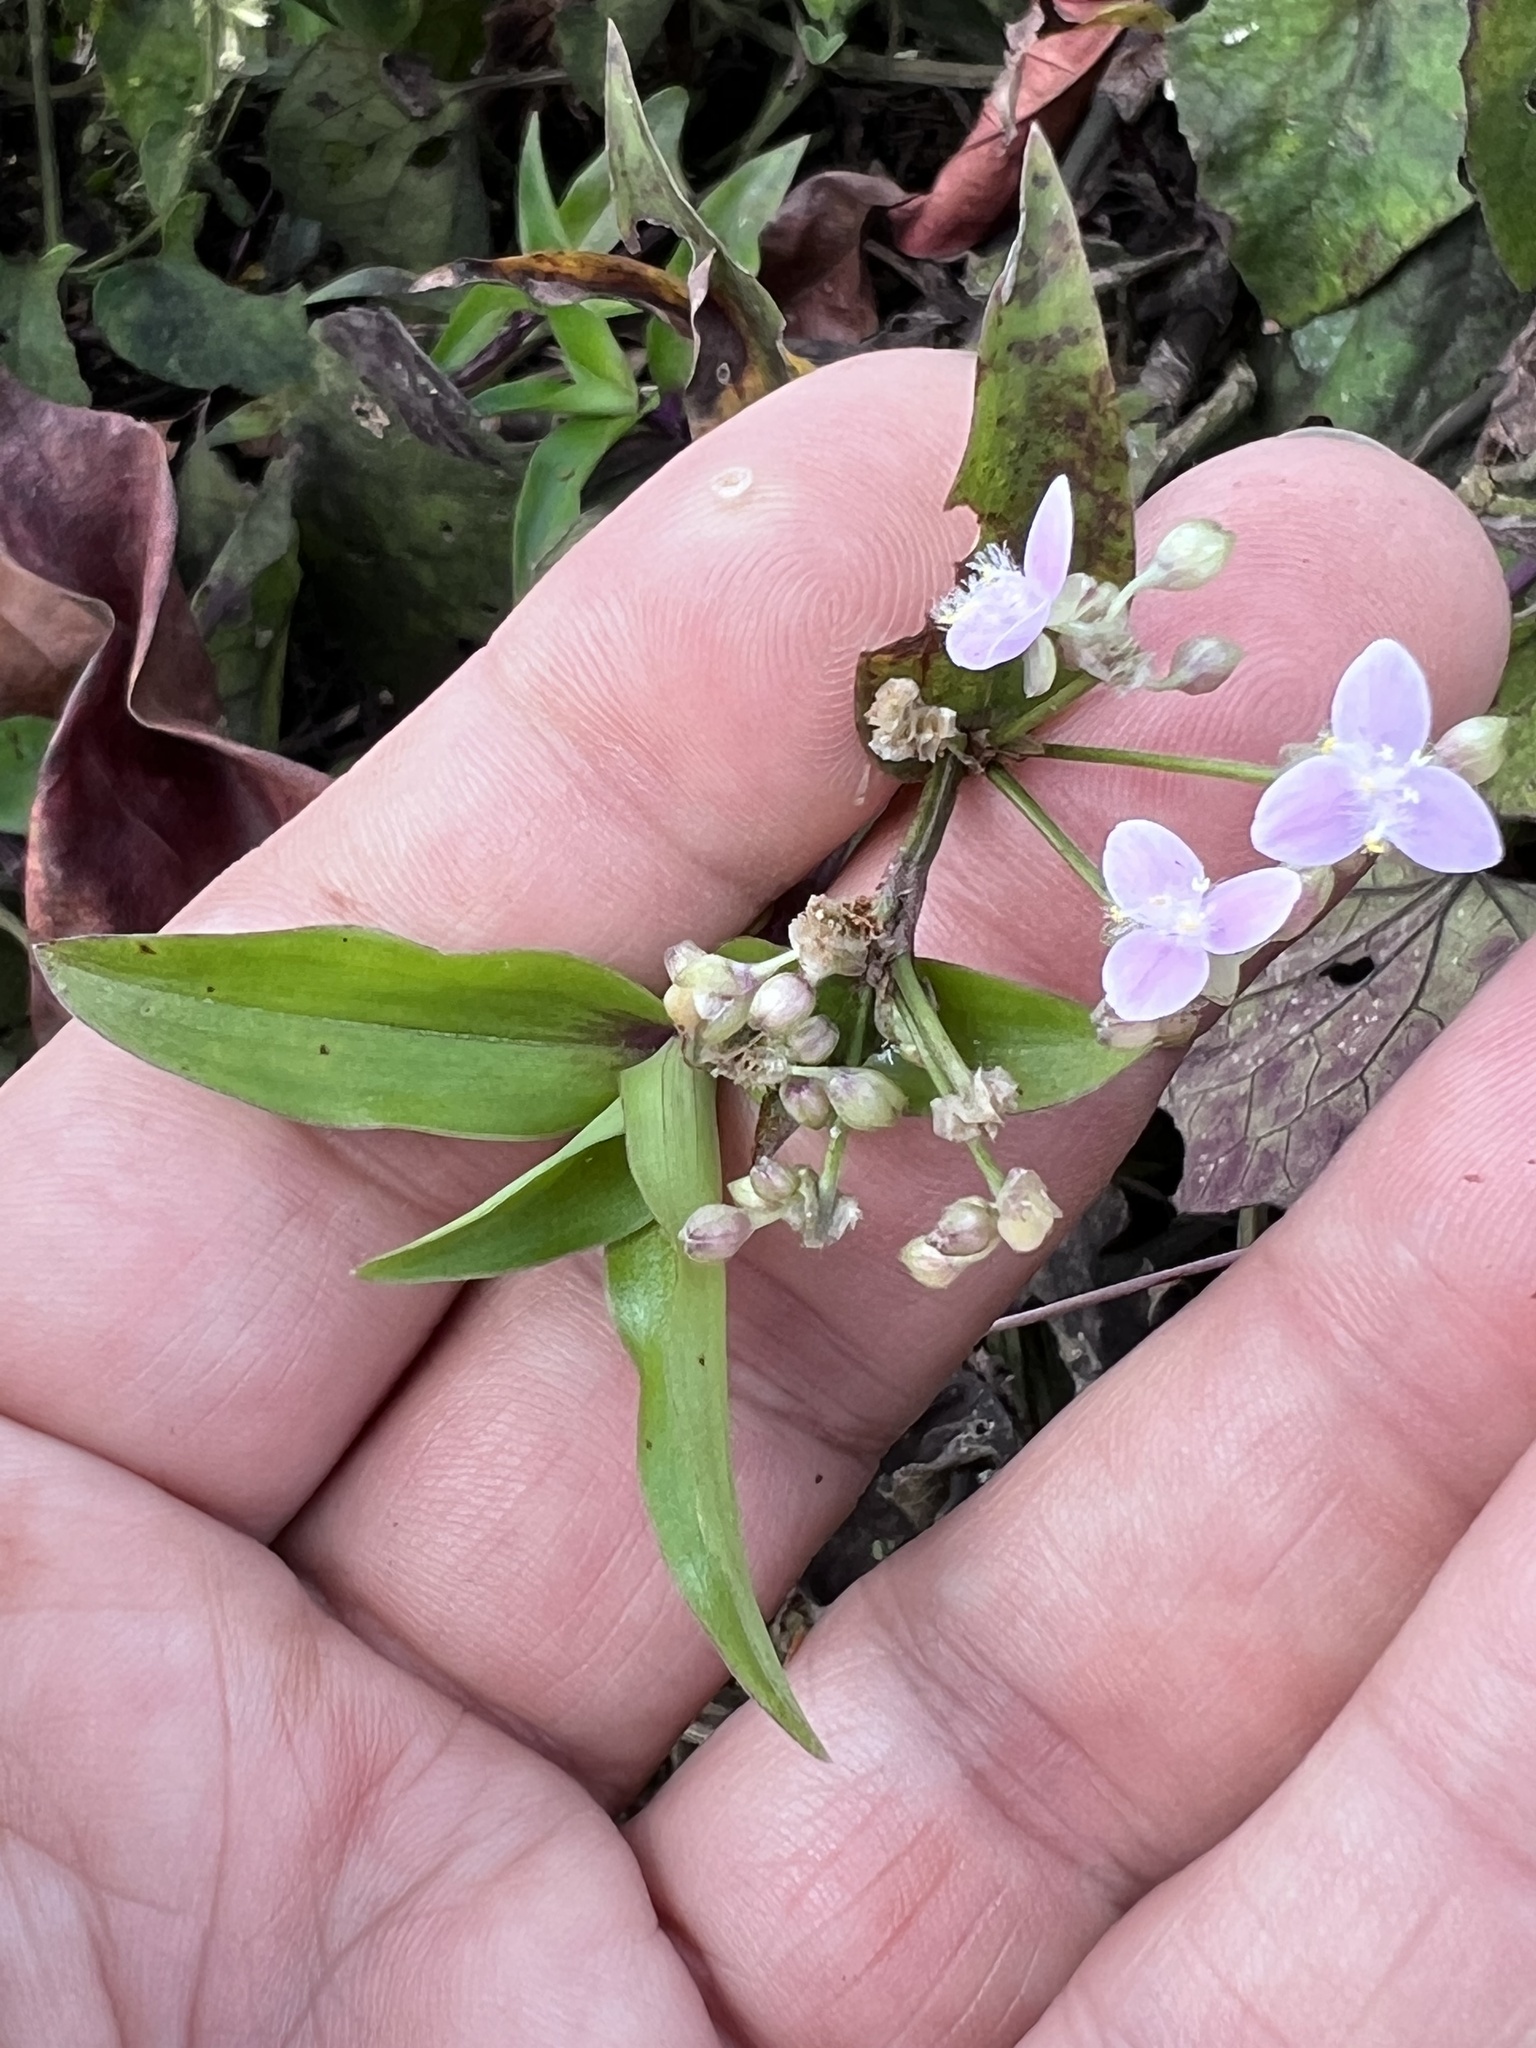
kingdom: Plantae
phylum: Tracheophyta
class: Liliopsida
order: Commelinales
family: Commelinaceae
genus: Callisia
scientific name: Callisia serrulata
